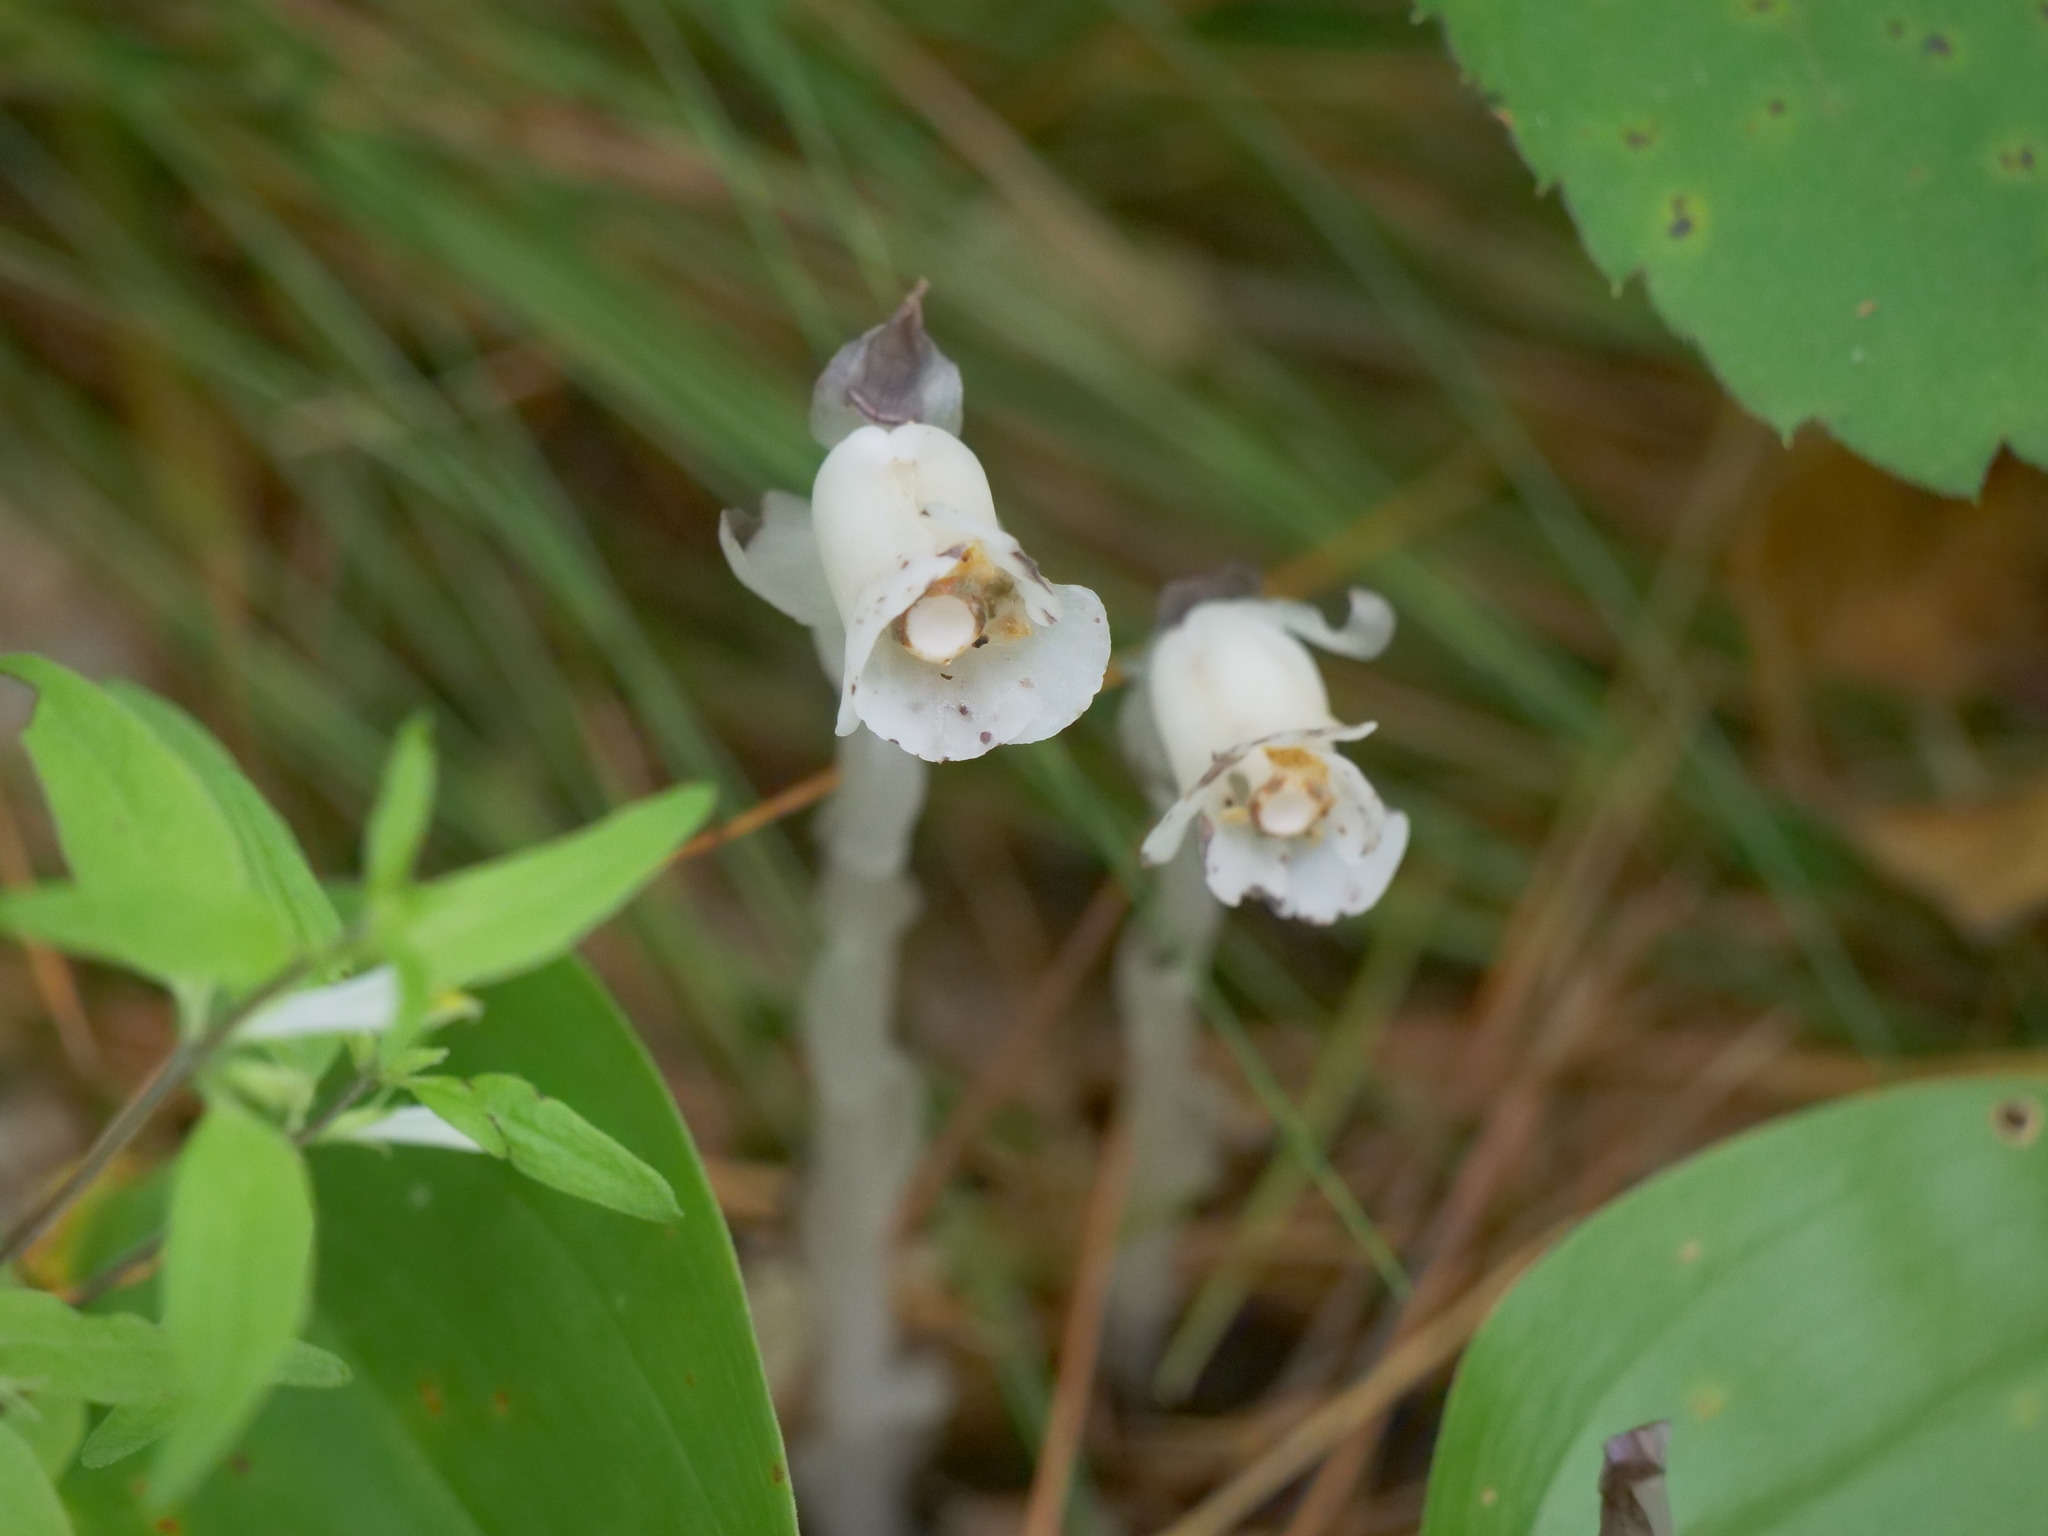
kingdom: Plantae
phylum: Tracheophyta
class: Magnoliopsida
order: Ericales
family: Ericaceae
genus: Monotropa
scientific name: Monotropa uniflora
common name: Convulsion root
